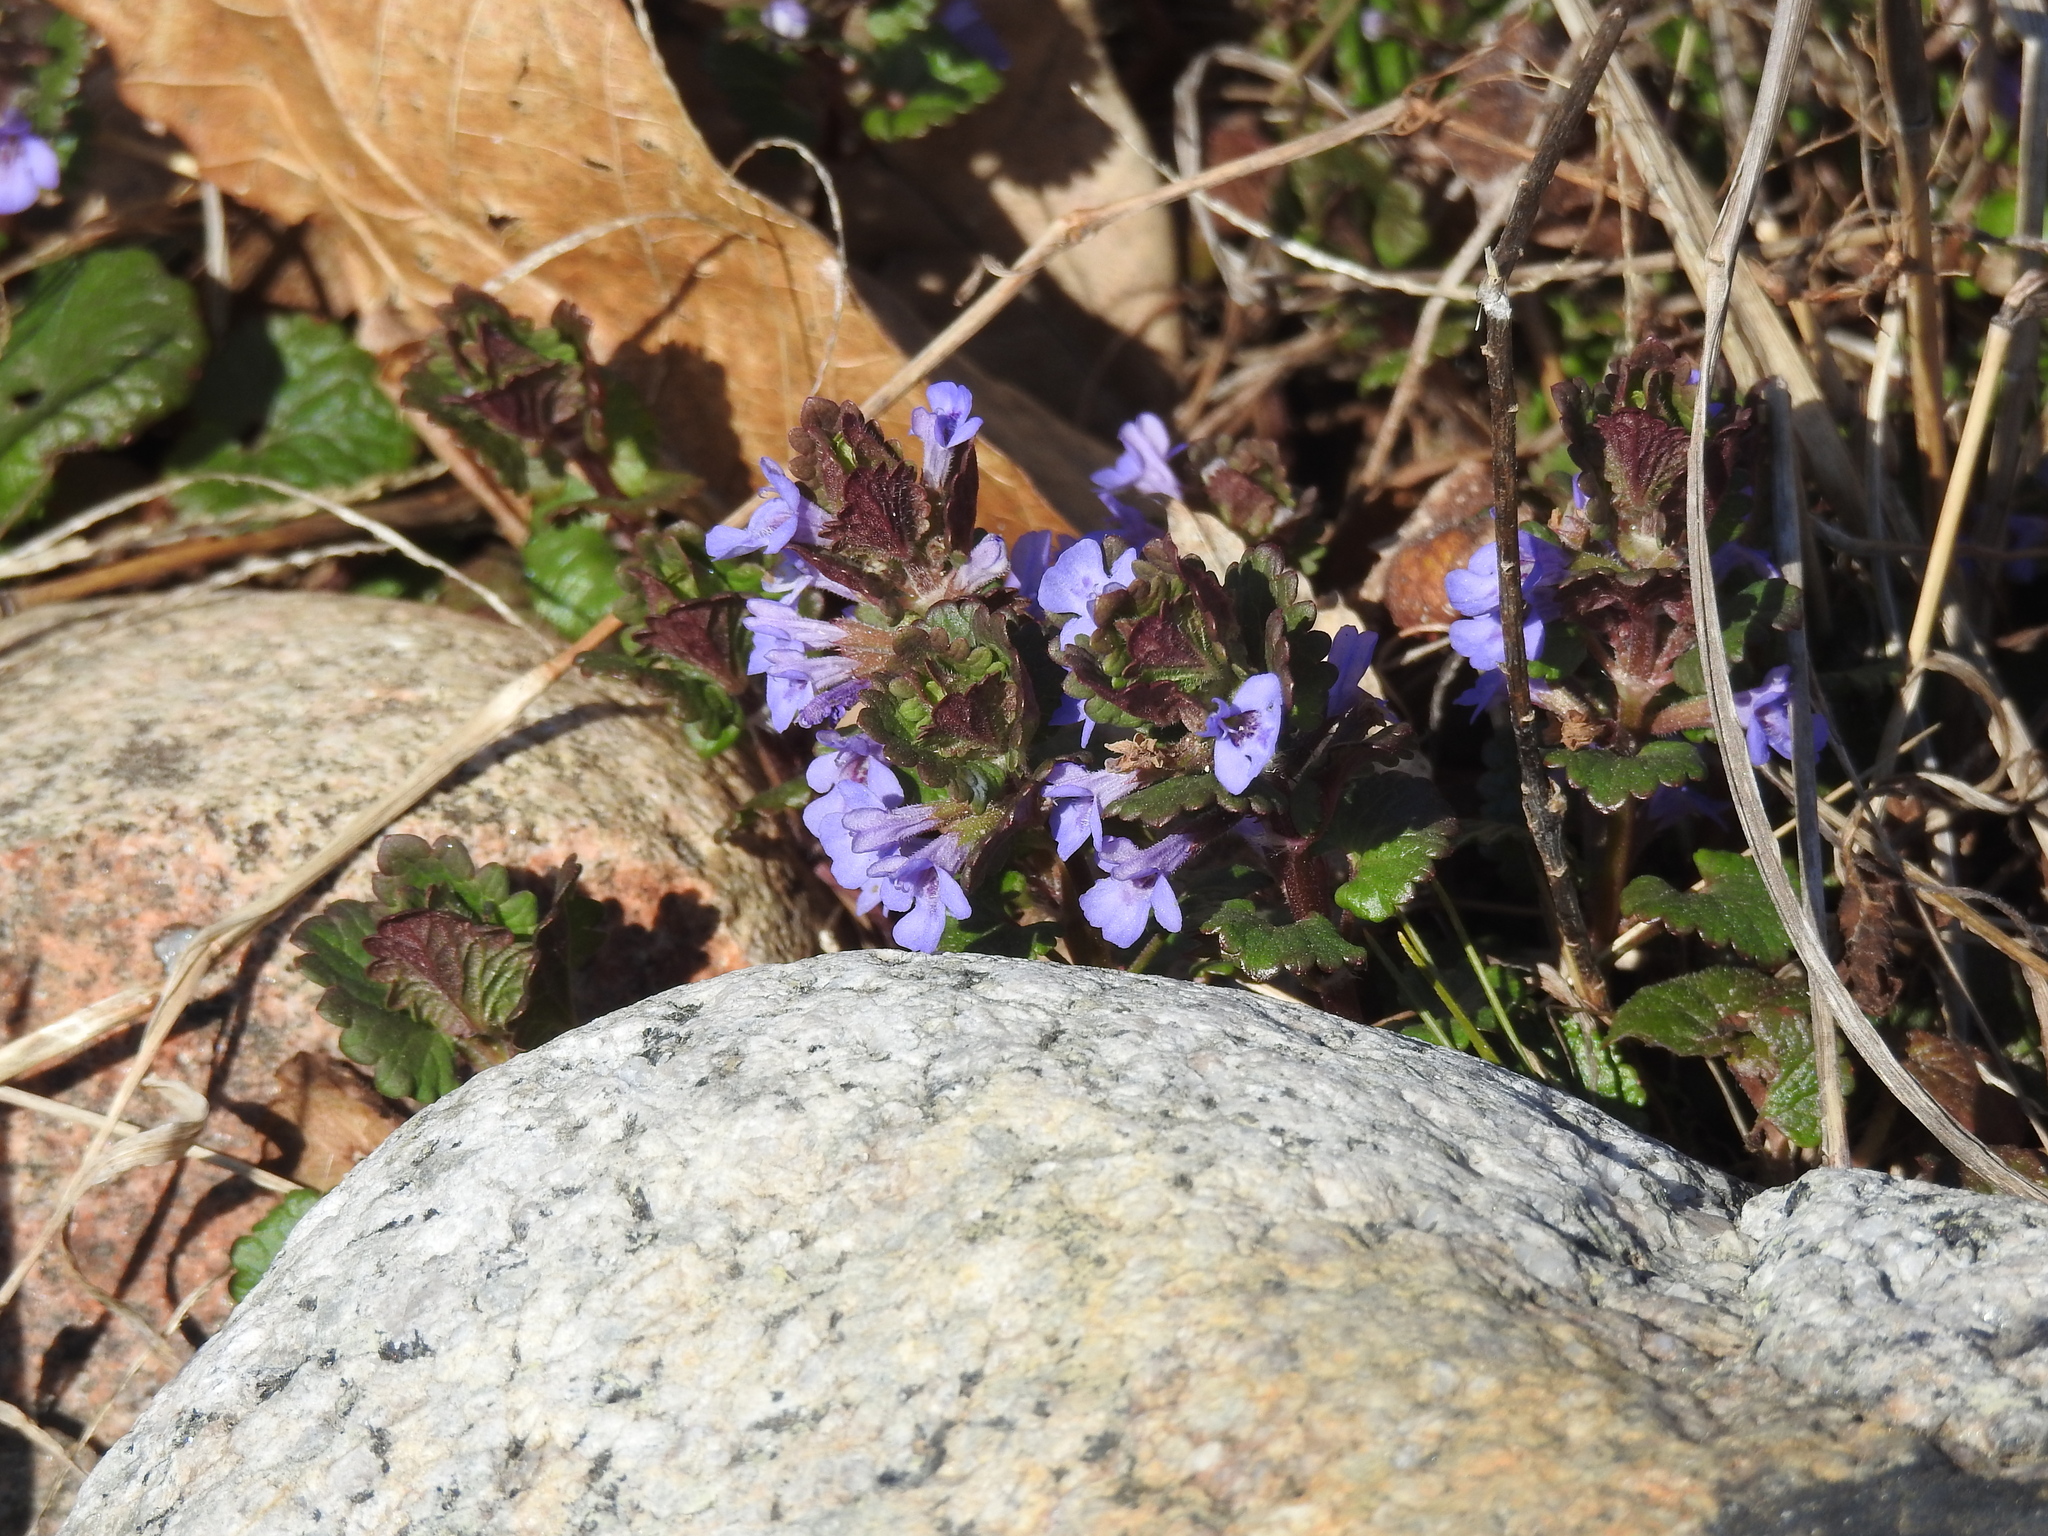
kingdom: Plantae
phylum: Tracheophyta
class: Magnoliopsida
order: Lamiales
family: Lamiaceae
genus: Glechoma
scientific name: Glechoma hederacea
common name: Ground ivy
